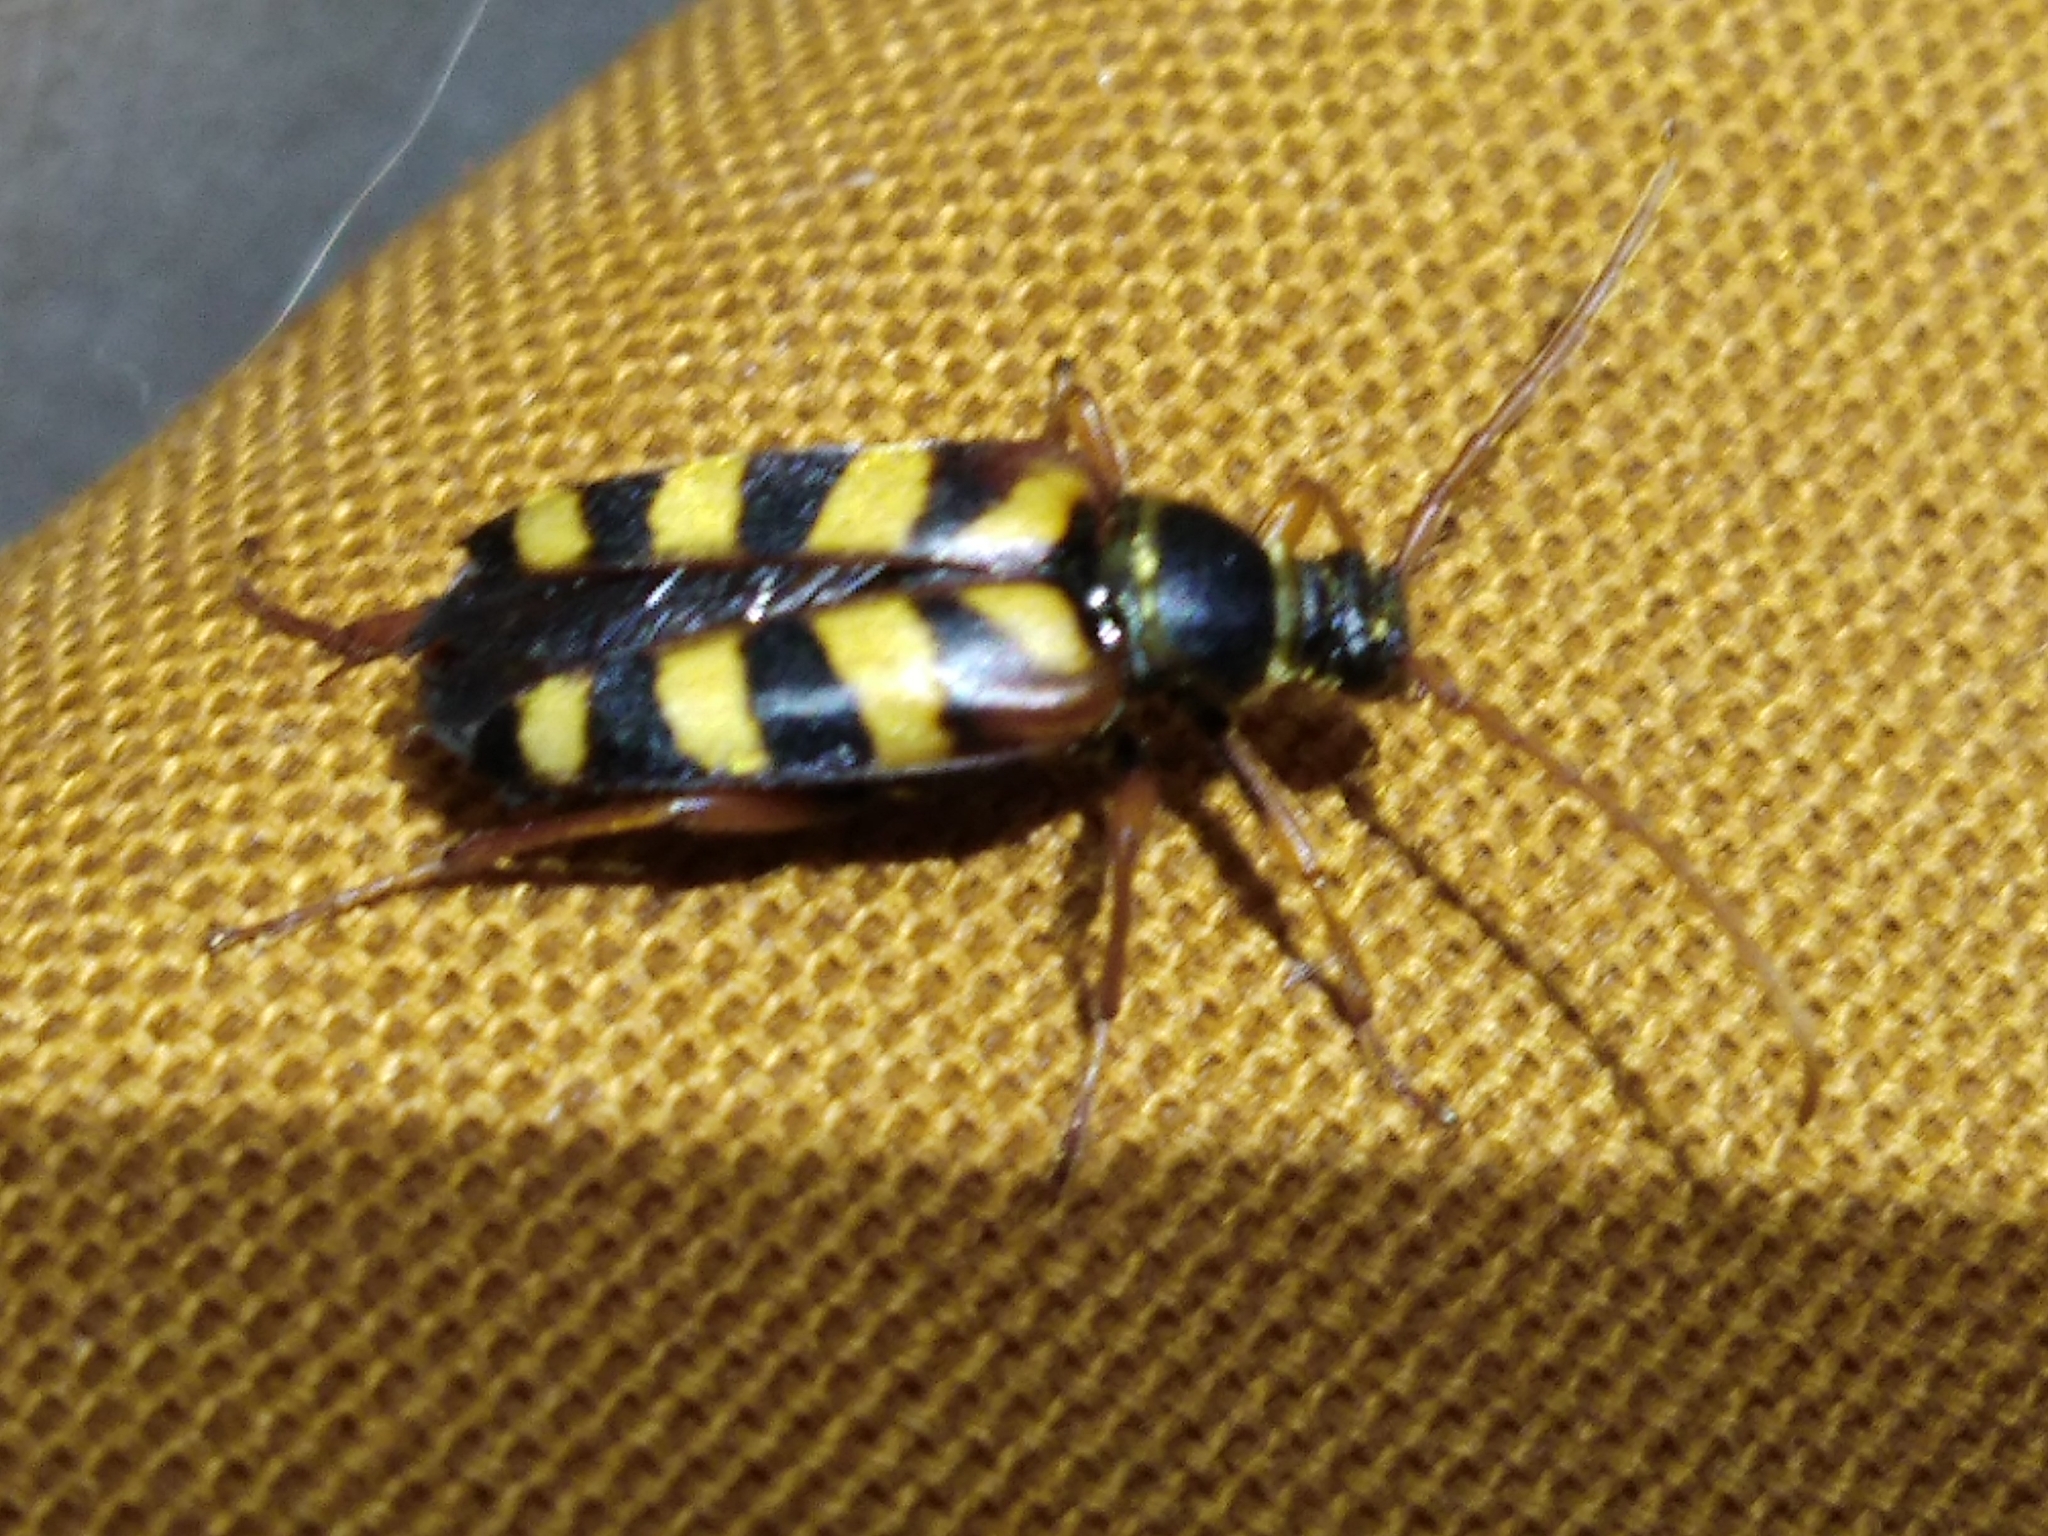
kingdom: Animalia
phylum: Arthropoda
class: Insecta
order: Coleoptera
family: Cerambycidae
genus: Leptura
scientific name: Leptura aurulenta
